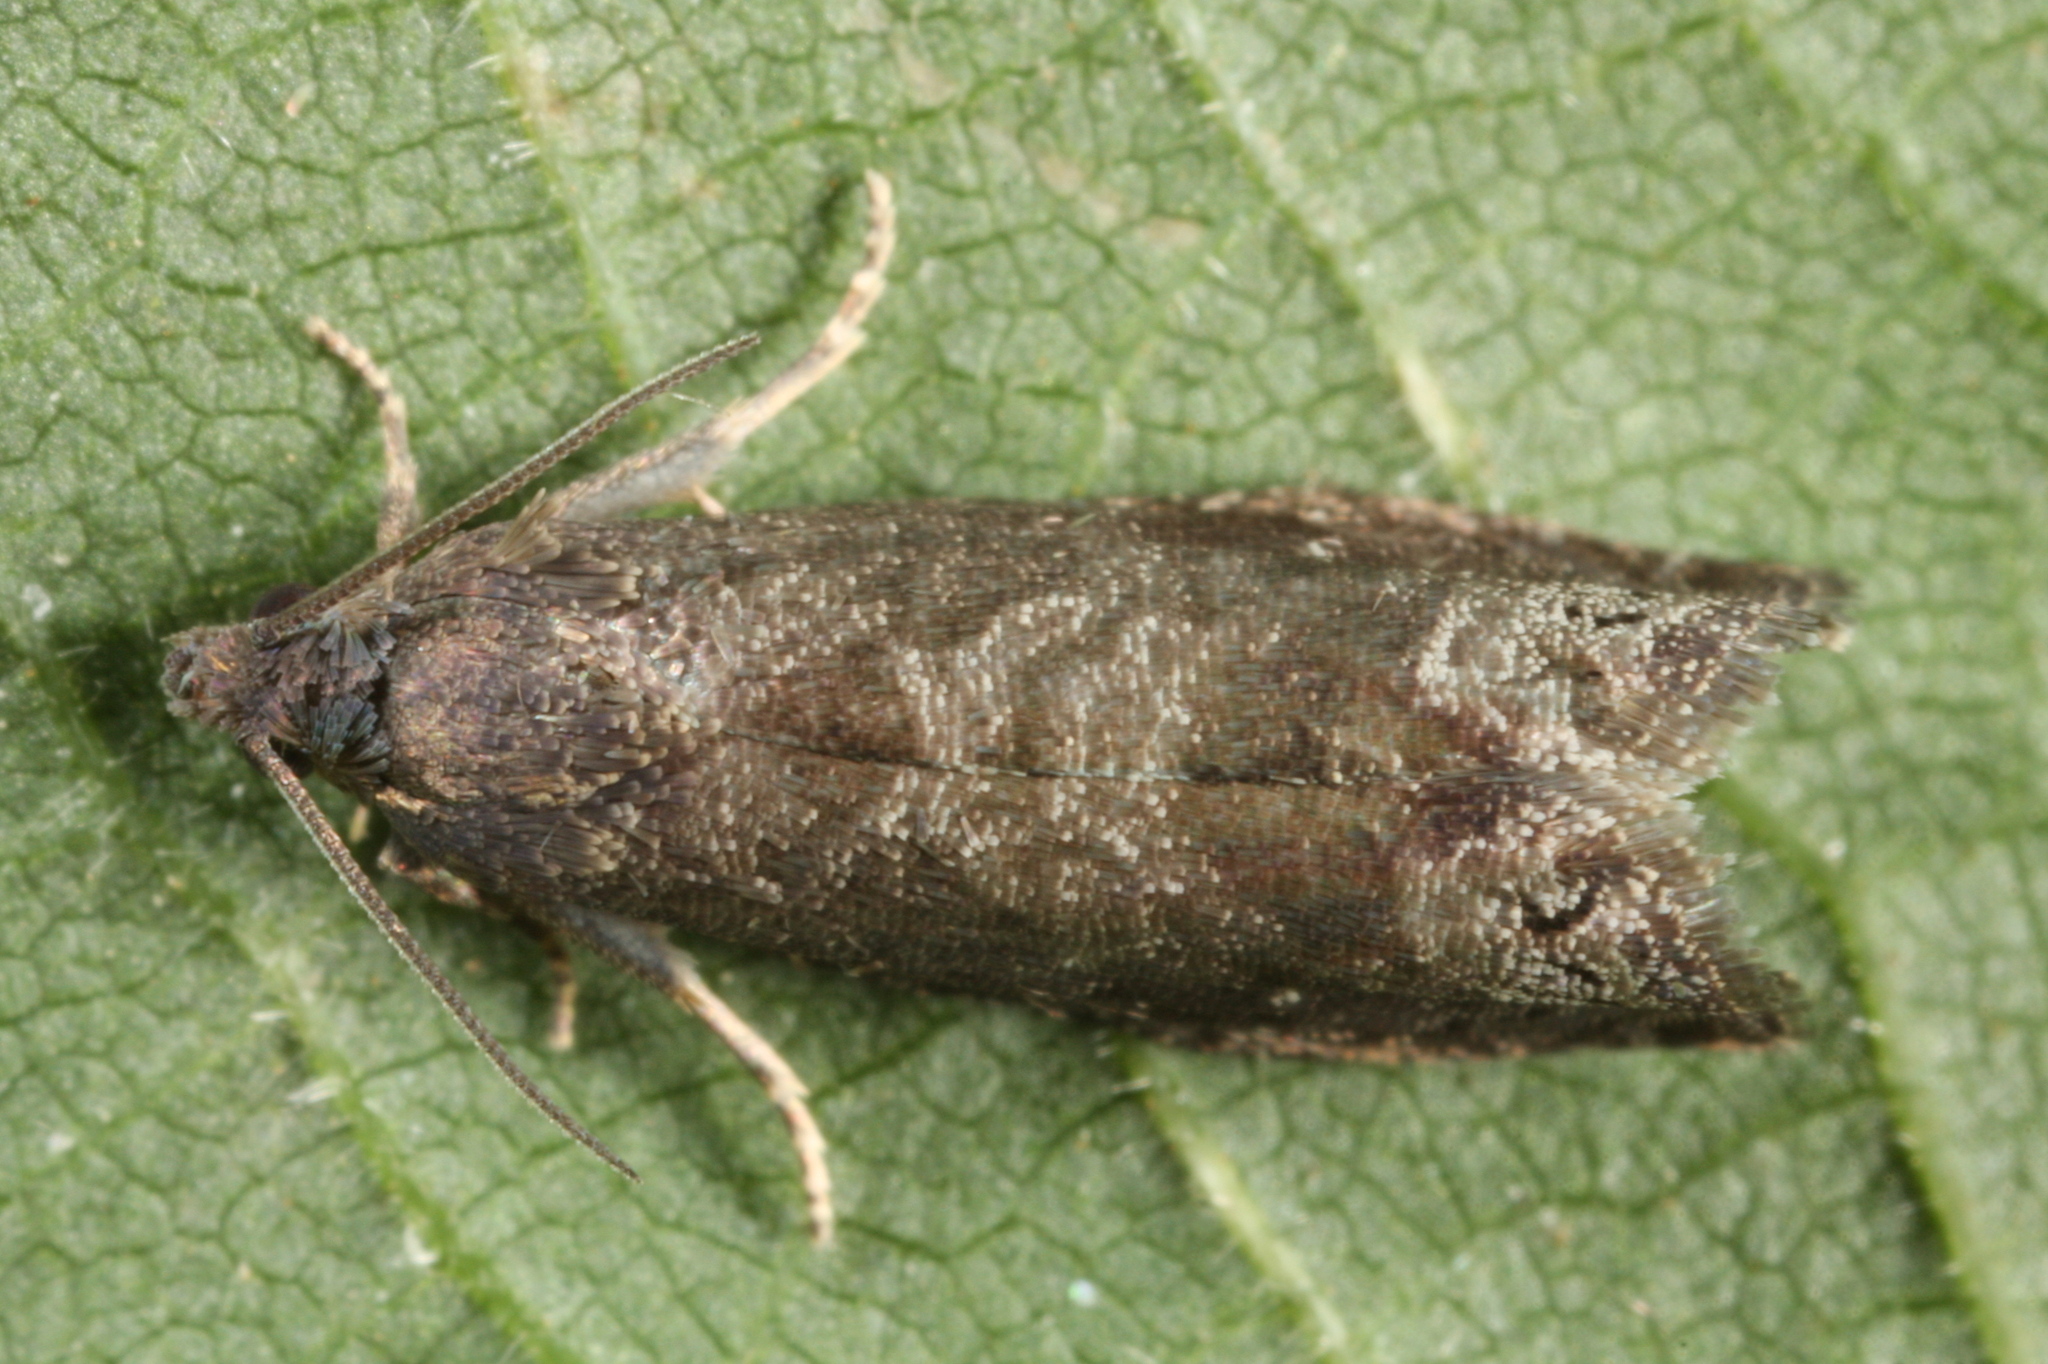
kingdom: Animalia
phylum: Arthropoda
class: Insecta
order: Lepidoptera
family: Noctuidae
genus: Aspila
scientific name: Aspila
